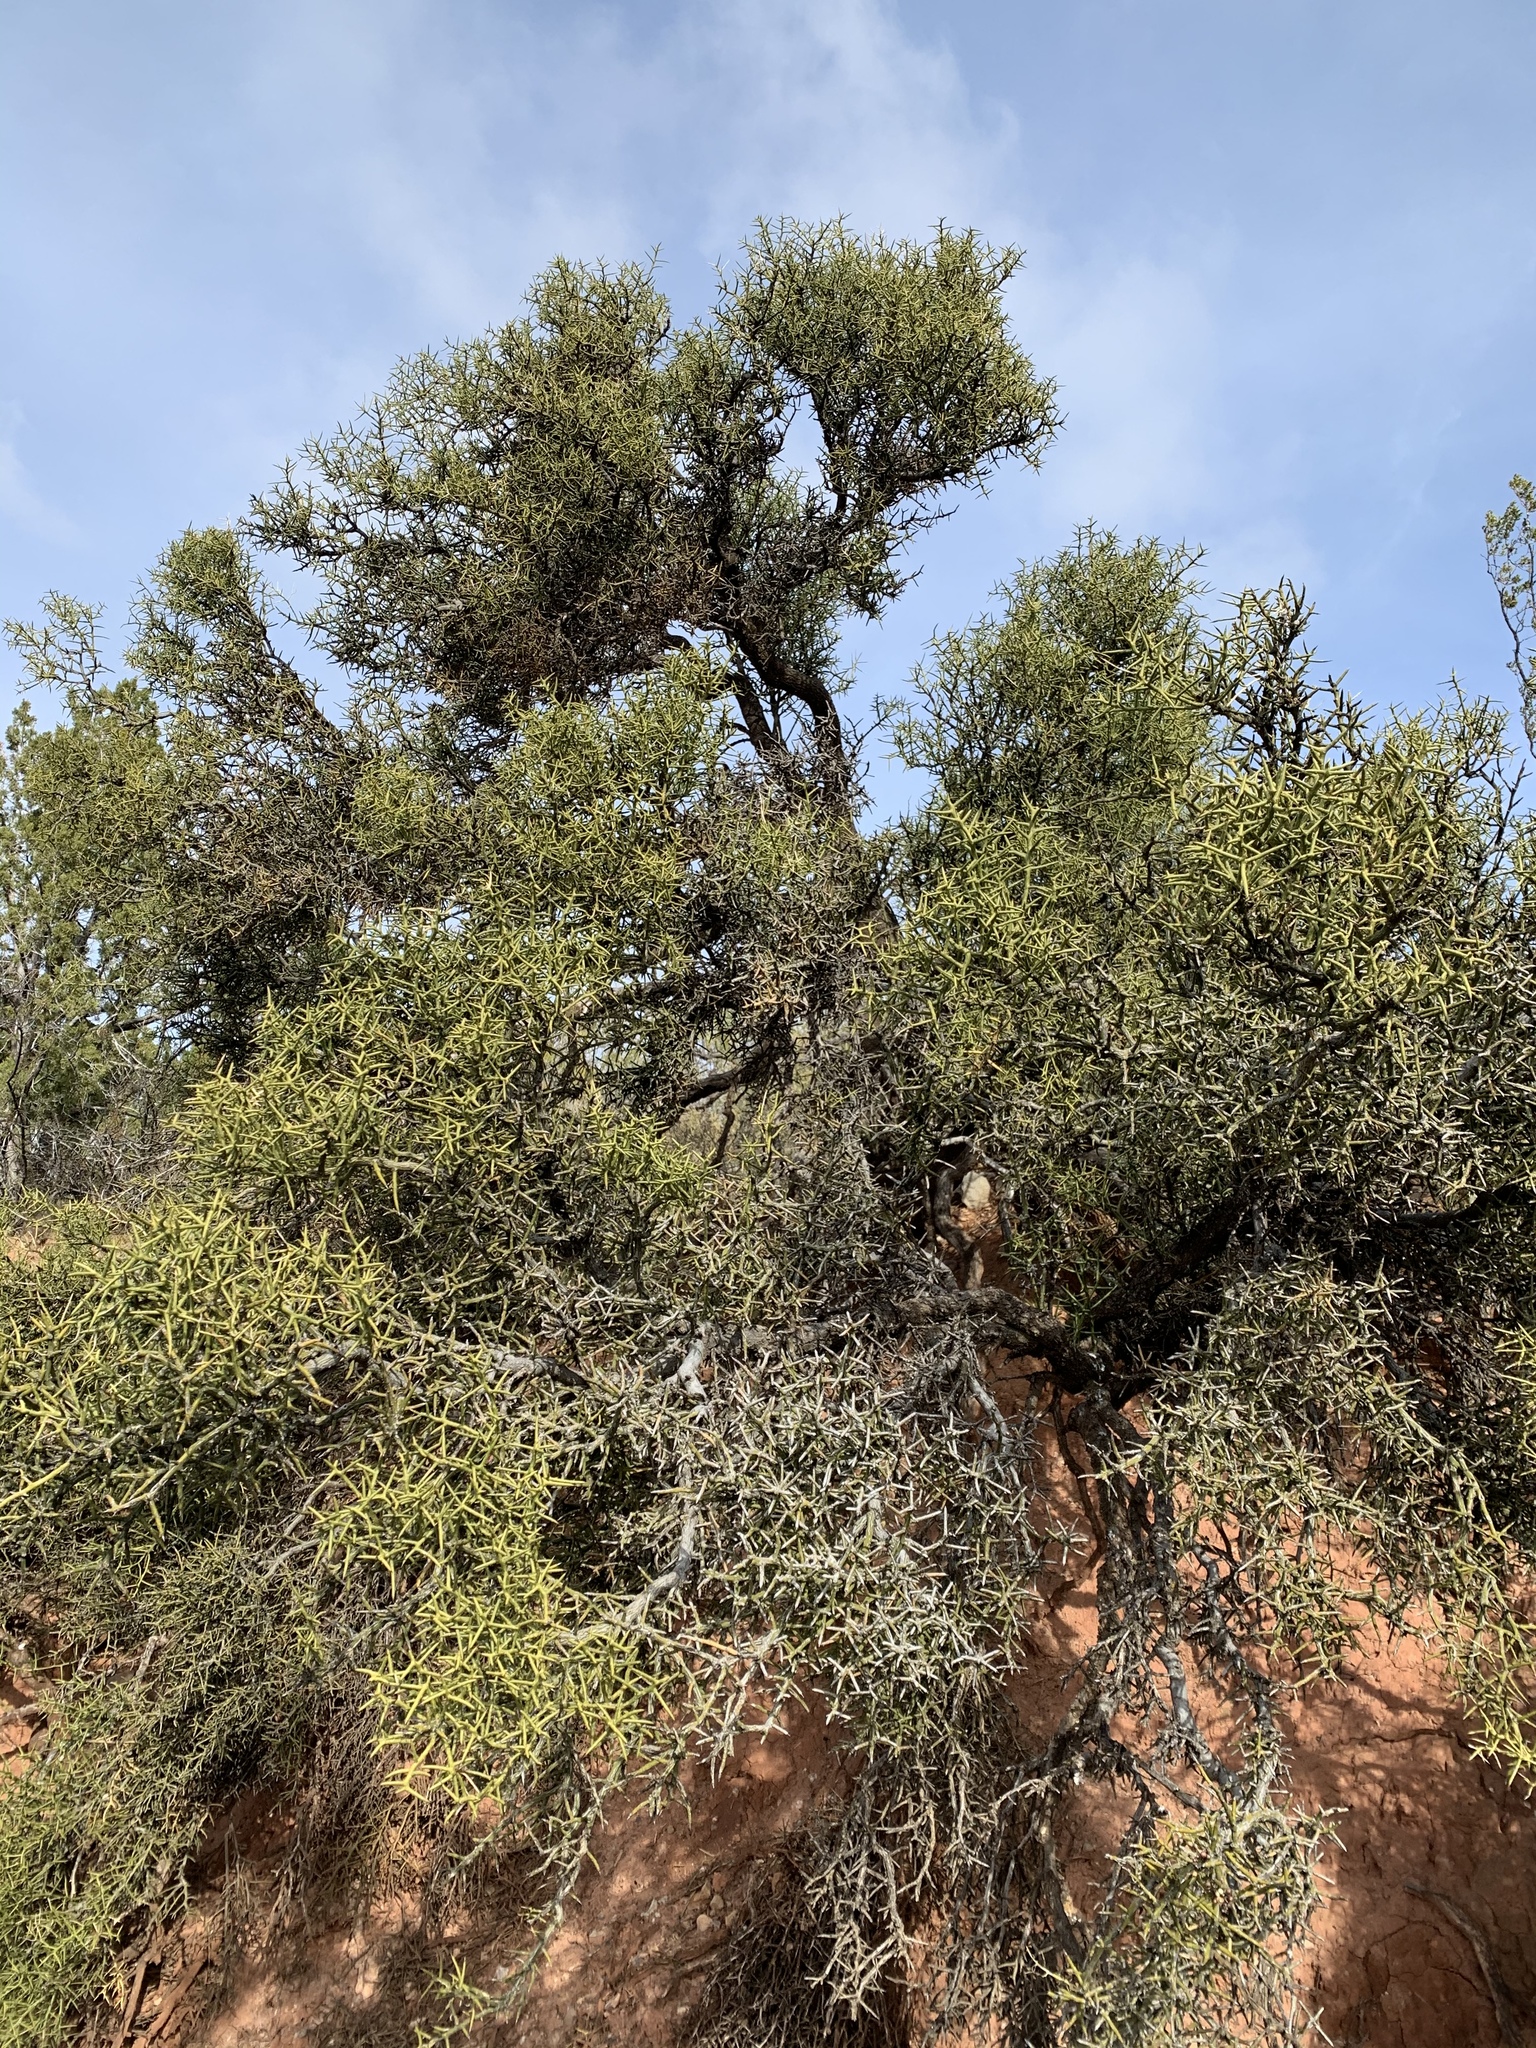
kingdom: Plantae
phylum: Tracheophyta
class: Magnoliopsida
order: Brassicales
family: Koeberliniaceae
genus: Koeberlinia
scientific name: Koeberlinia spinosa
